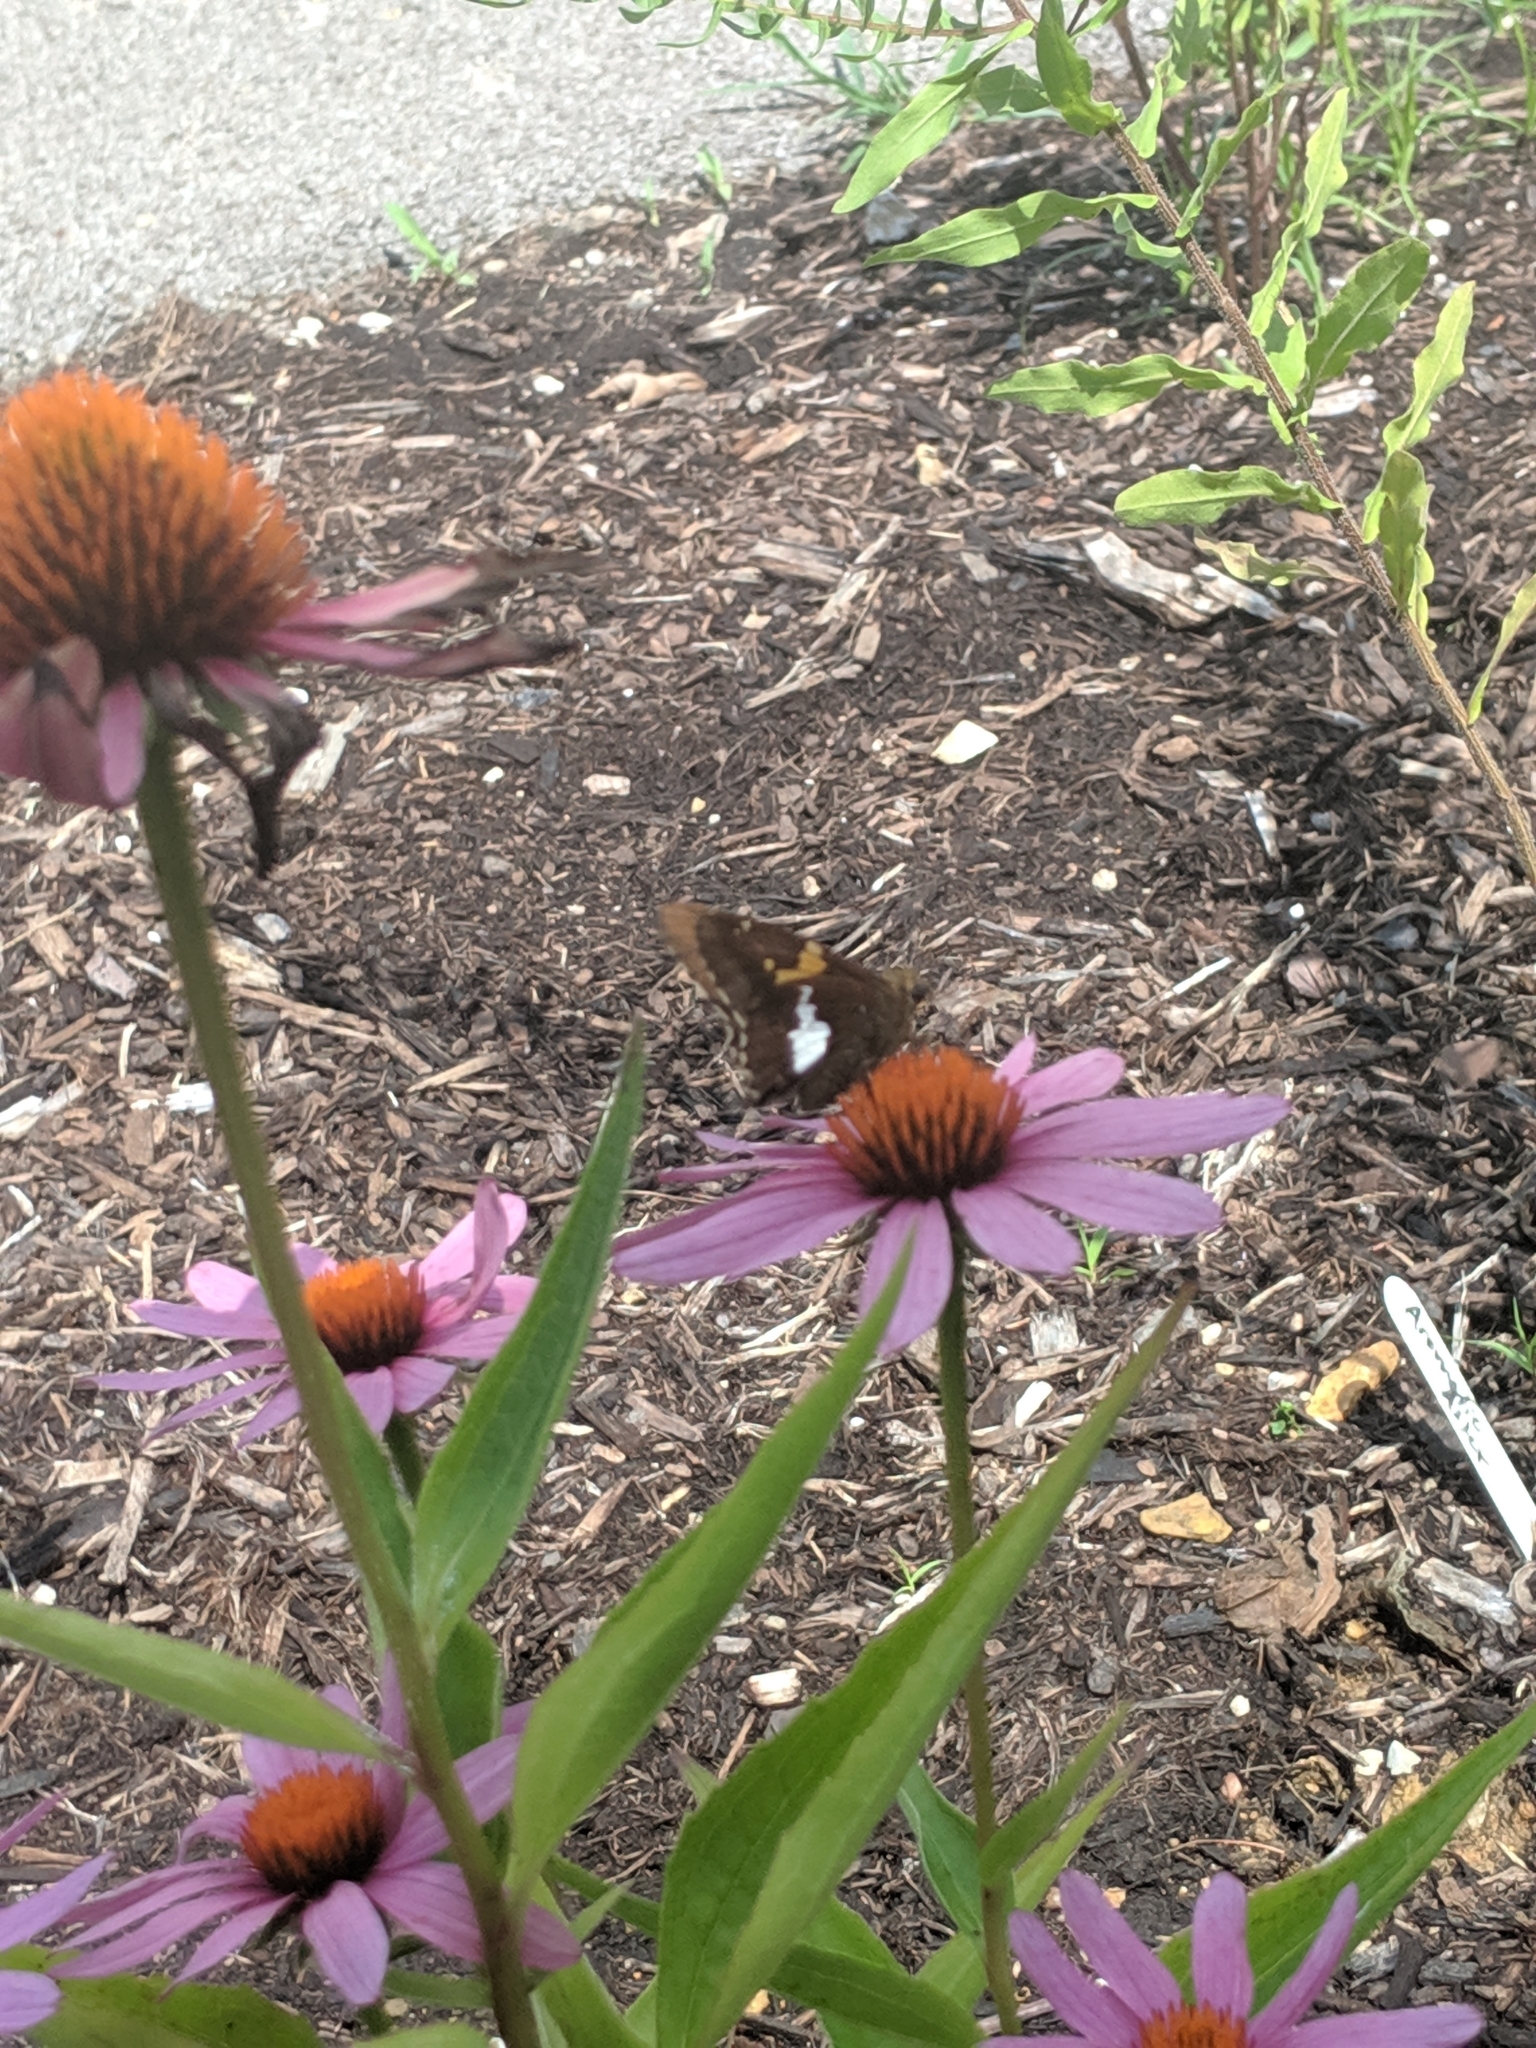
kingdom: Animalia
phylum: Arthropoda
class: Insecta
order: Lepidoptera
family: Hesperiidae
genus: Epargyreus
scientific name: Epargyreus clarus
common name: Silver-spotted skipper
